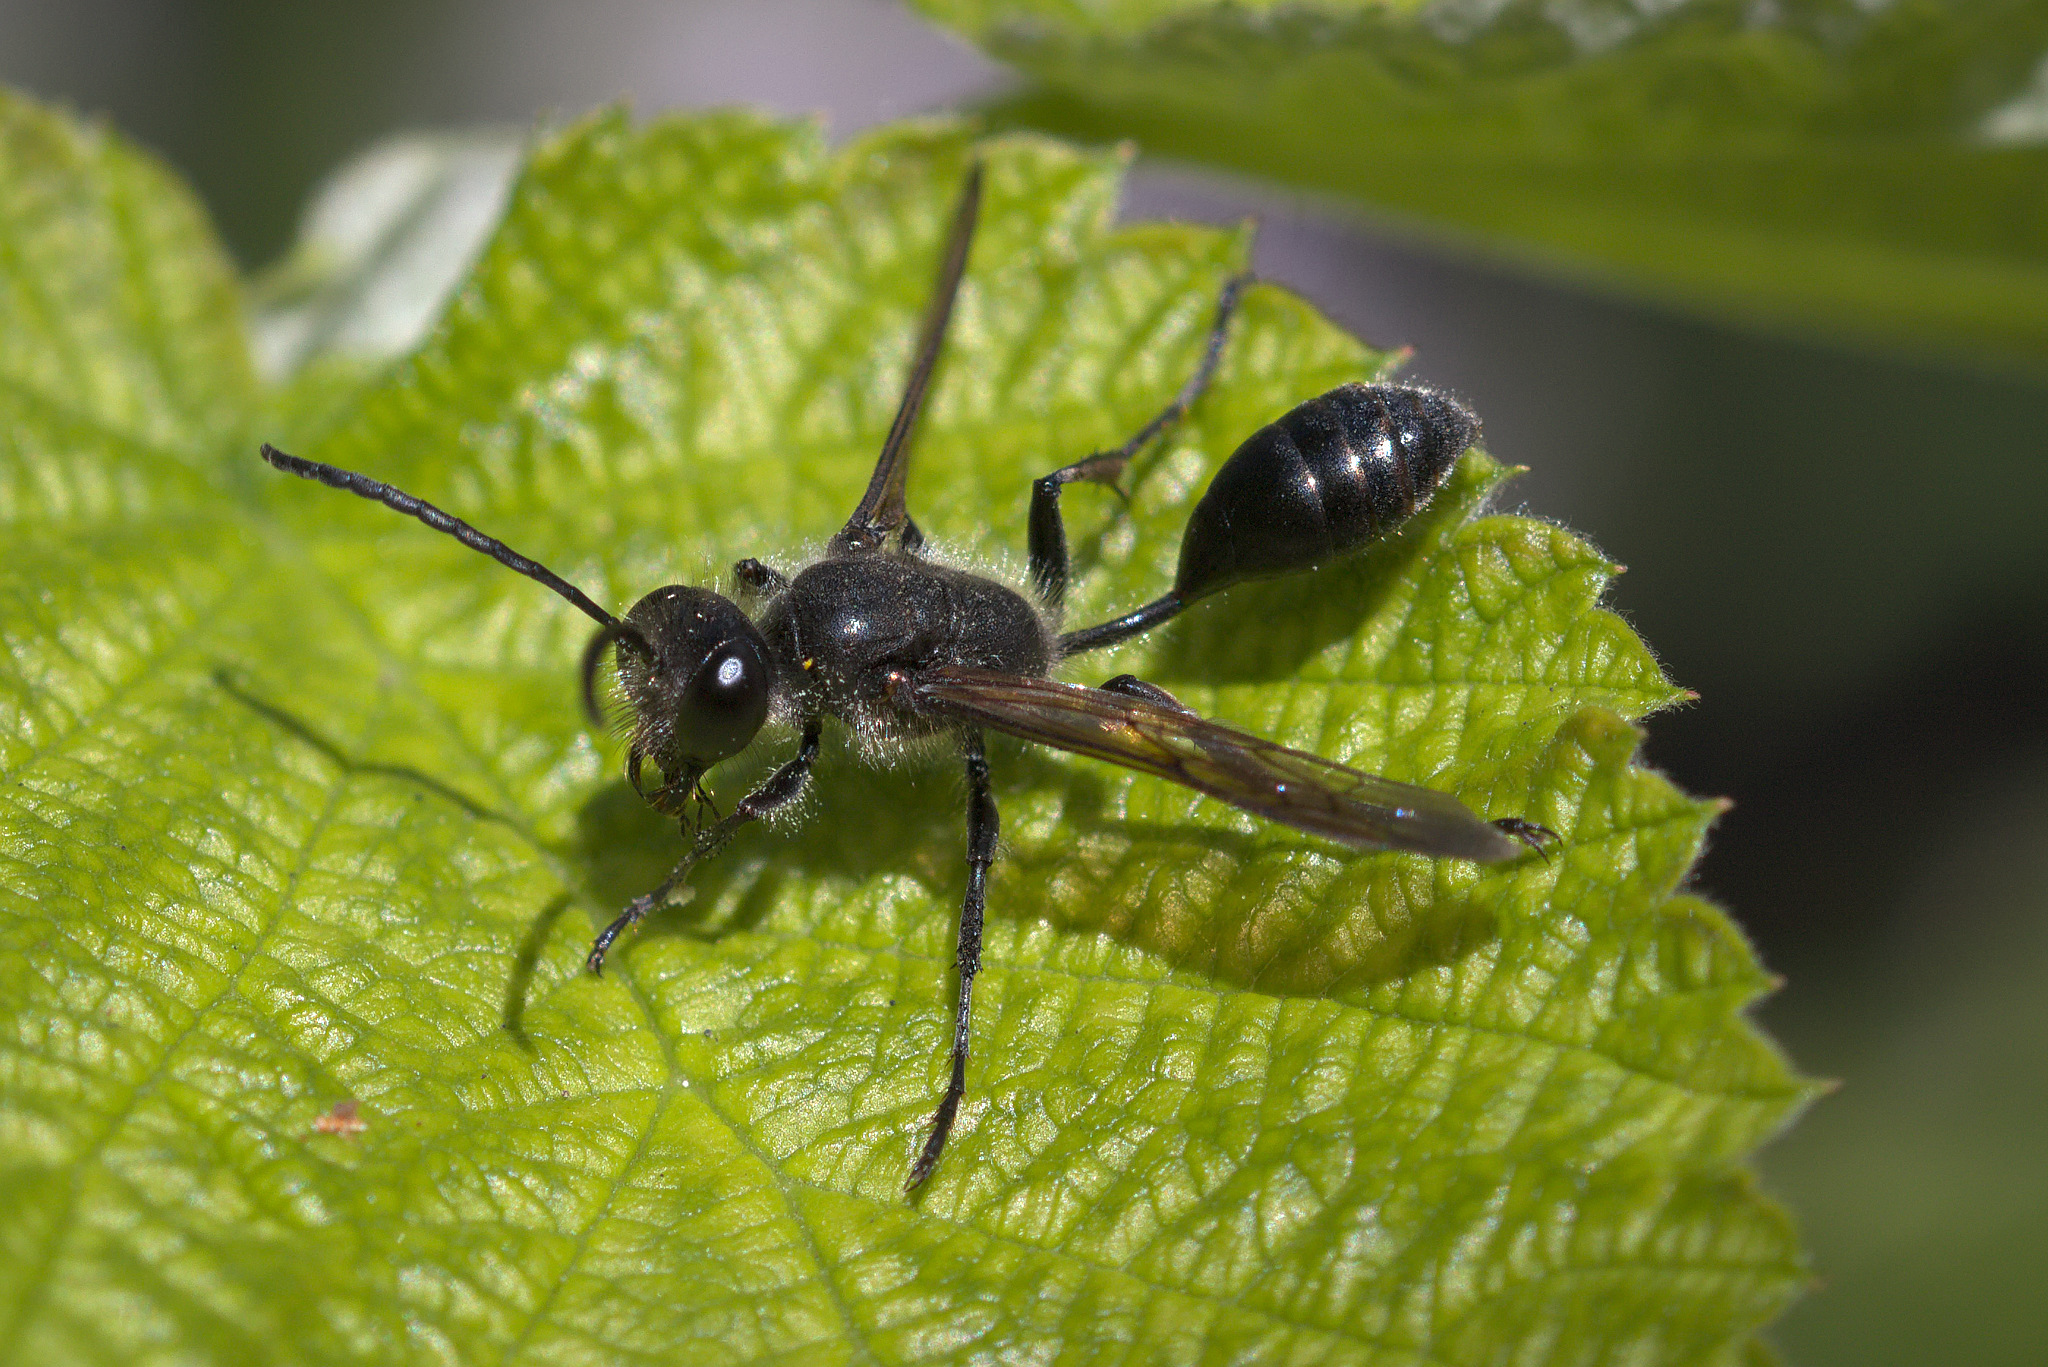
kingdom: Animalia
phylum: Arthropoda
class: Insecta
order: Hymenoptera
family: Sphecidae
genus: Isodontia
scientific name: Isodontia mexicana
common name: Mud dauber
